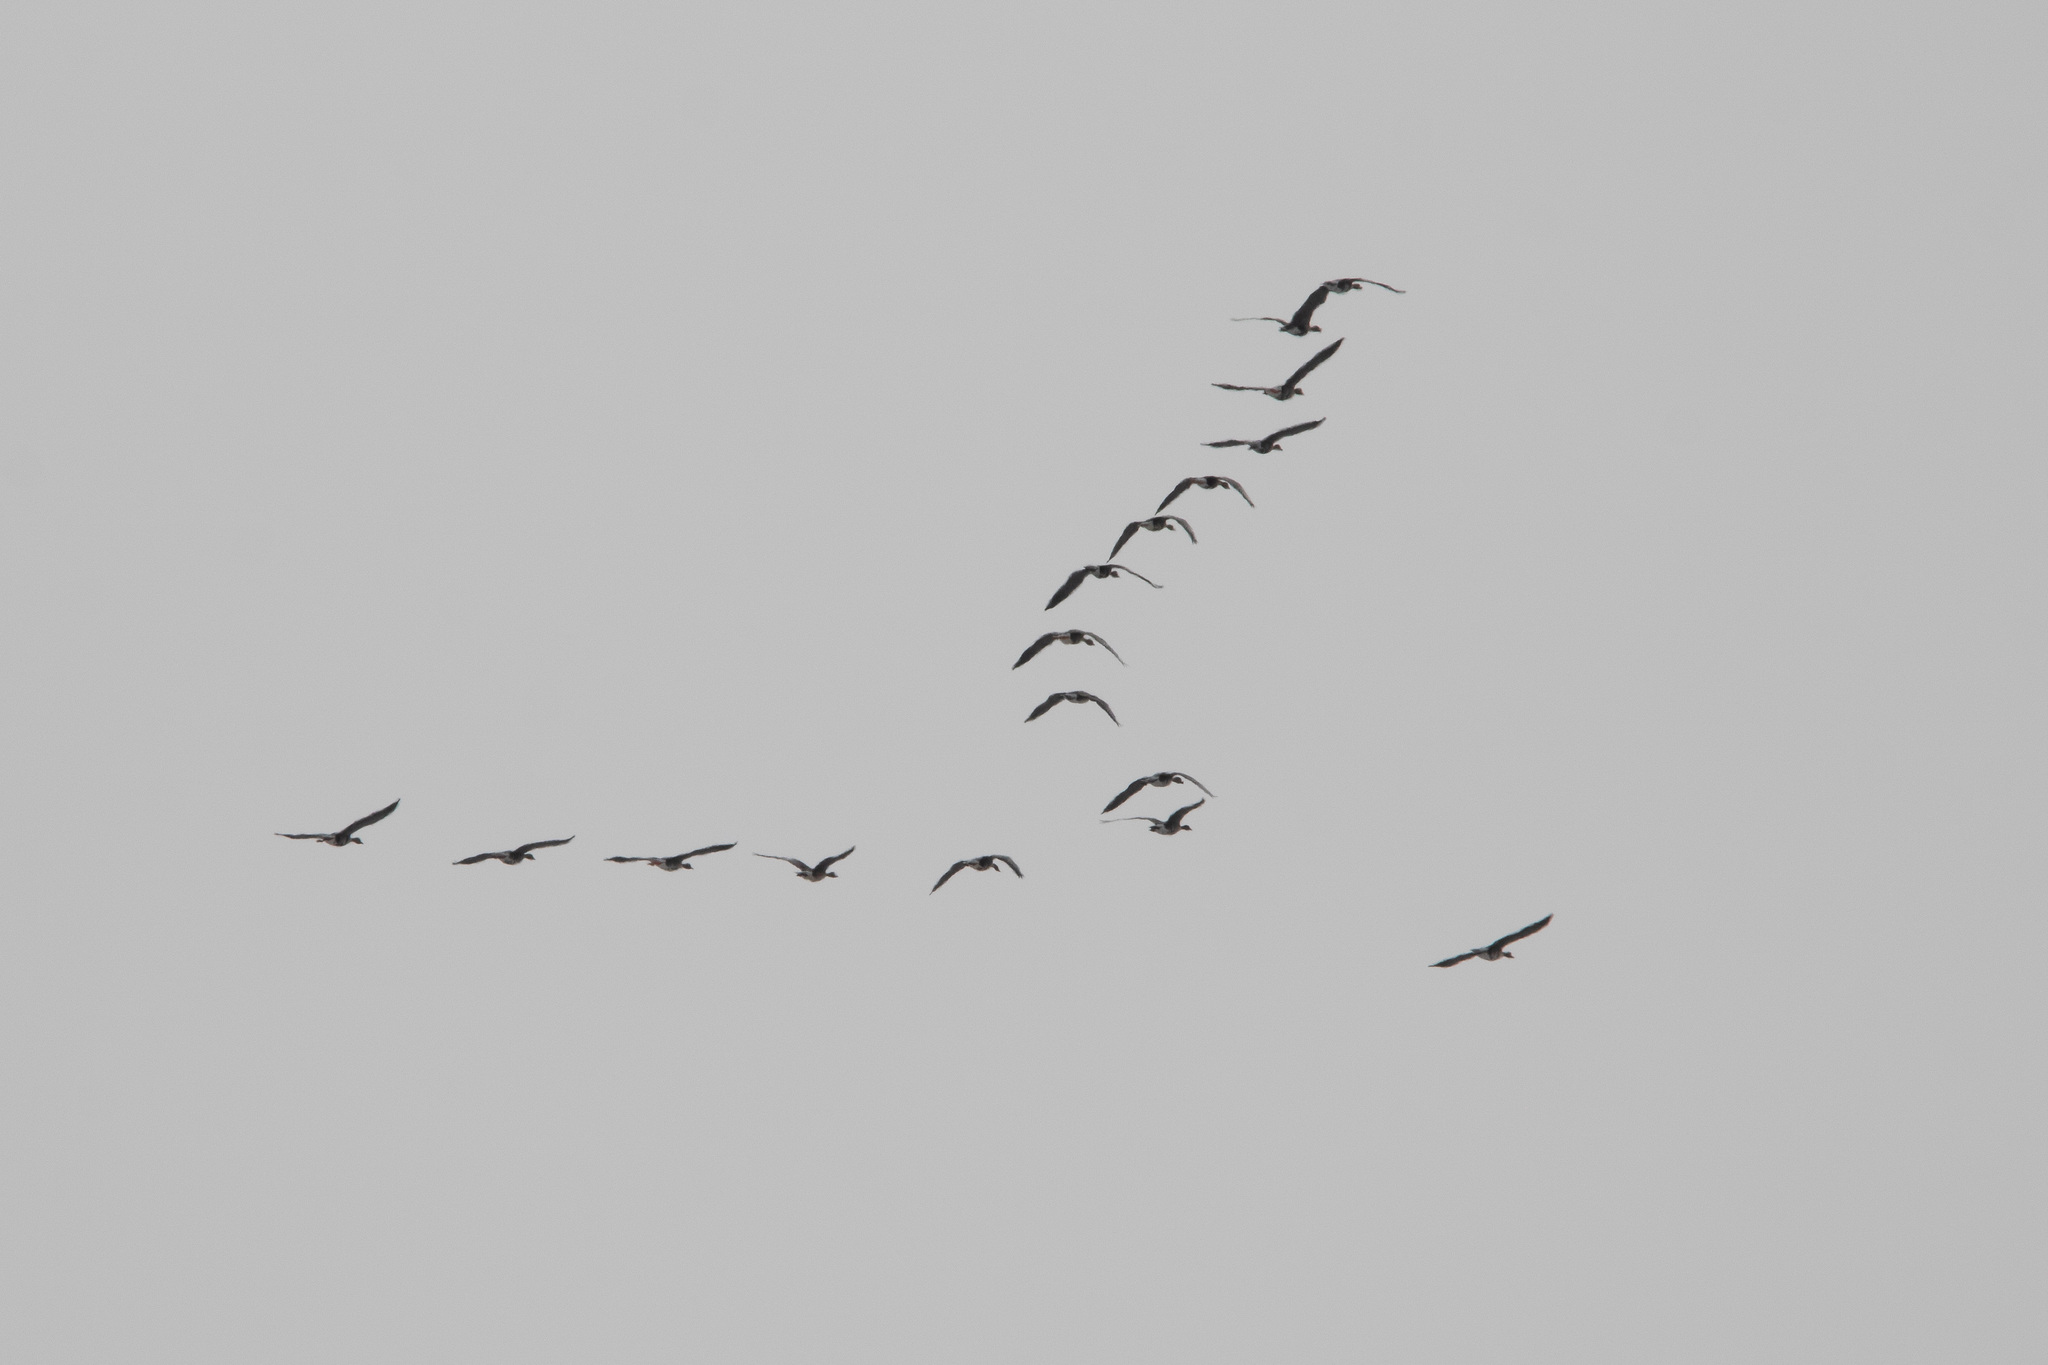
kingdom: Animalia
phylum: Chordata
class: Aves
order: Anseriformes
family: Anatidae
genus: Anser
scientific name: Anser albifrons
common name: Greater white-fronted goose
